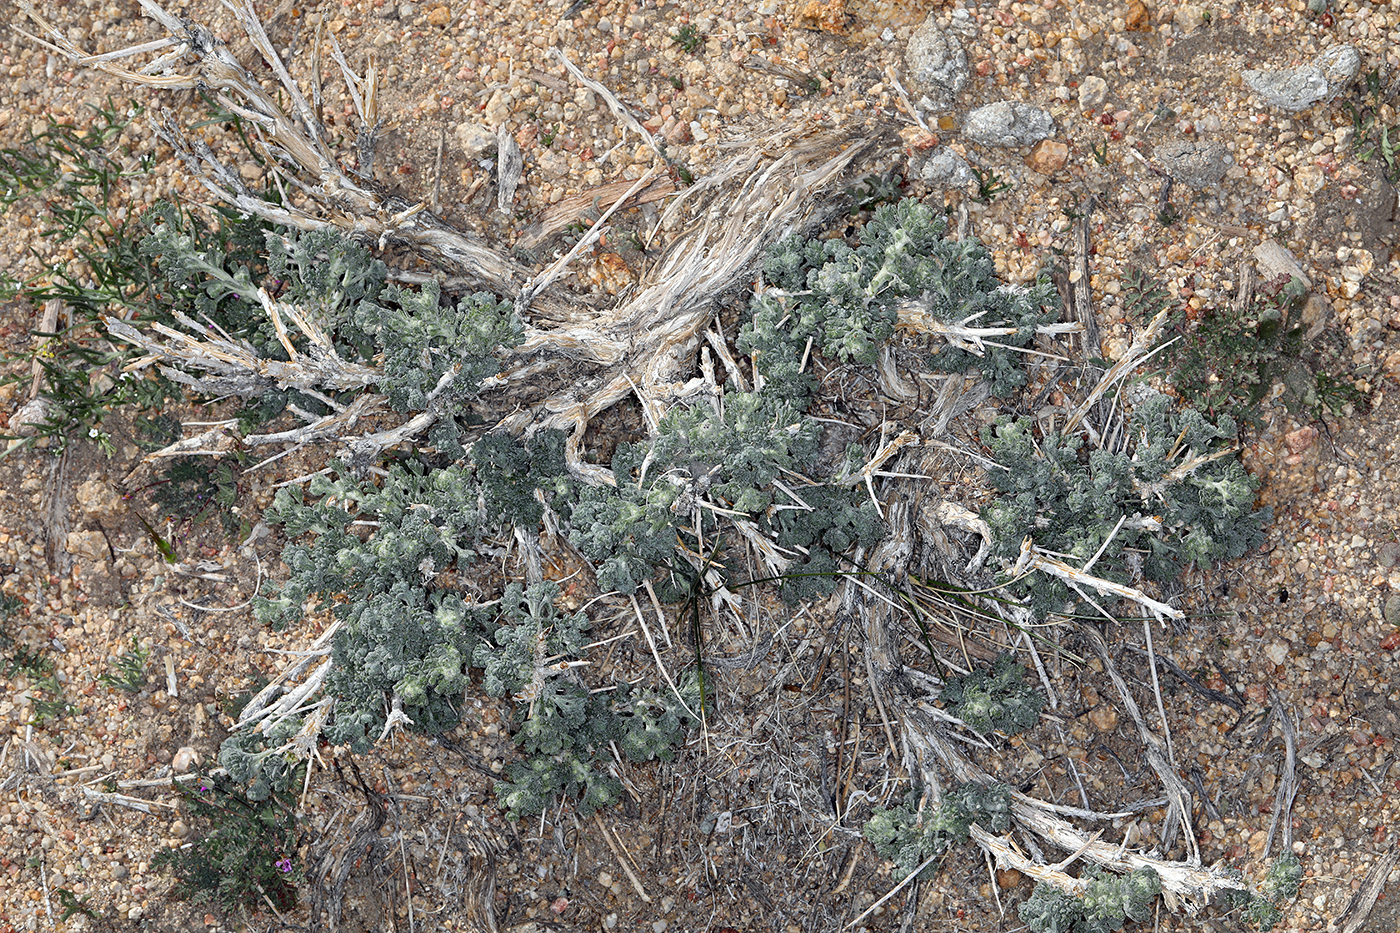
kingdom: Plantae
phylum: Tracheophyta
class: Magnoliopsida
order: Asterales
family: Asteraceae
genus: Artemisia
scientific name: Artemisia spinescens
